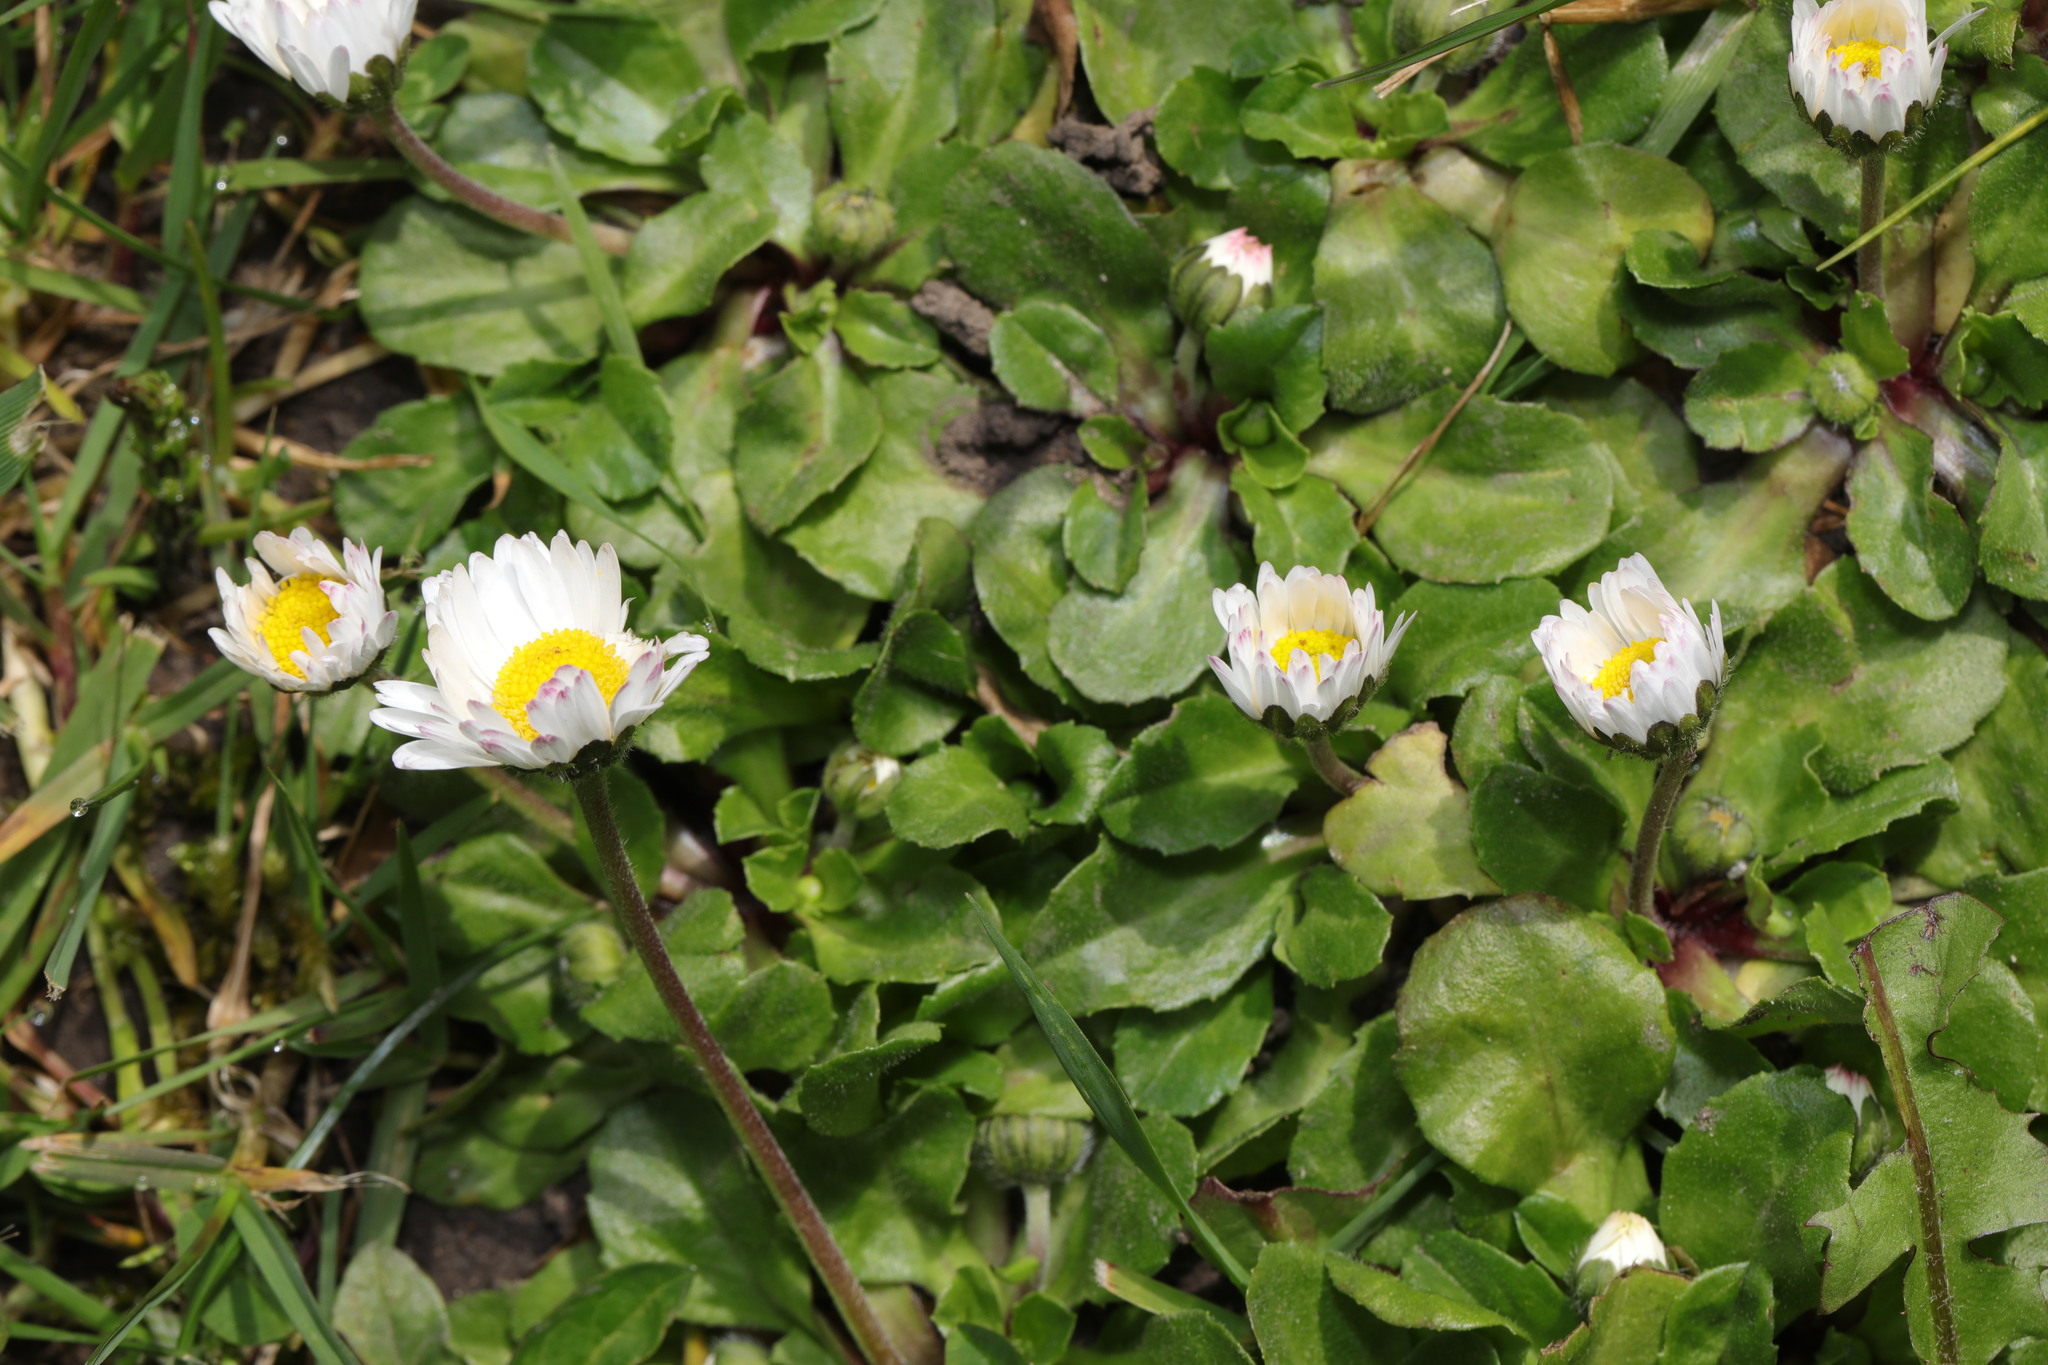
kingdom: Plantae
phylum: Tracheophyta
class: Magnoliopsida
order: Asterales
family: Asteraceae
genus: Bellis
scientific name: Bellis perennis
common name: Lawndaisy
